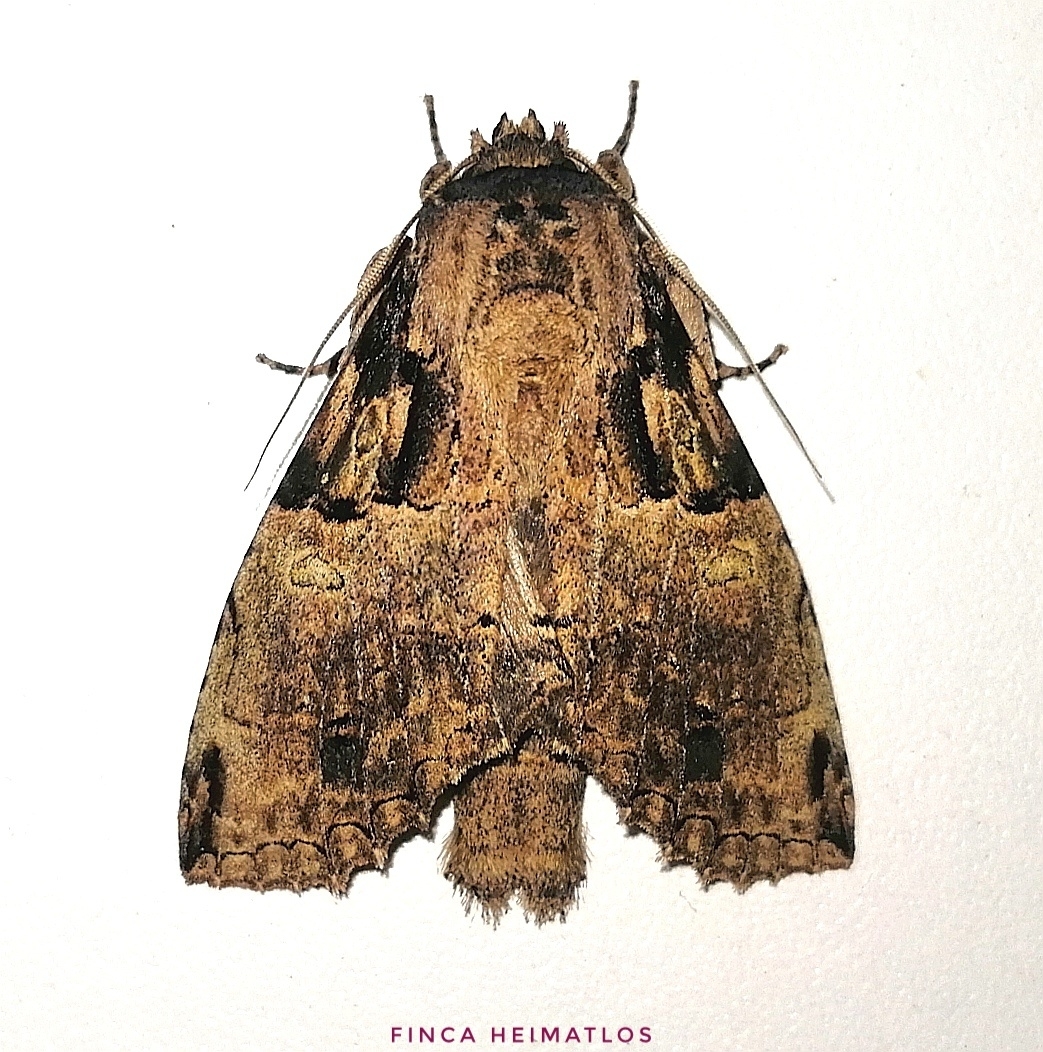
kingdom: Animalia
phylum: Arthropoda
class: Insecta
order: Lepidoptera
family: Notodontidae
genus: Ophitis
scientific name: Ophitis magnaria
